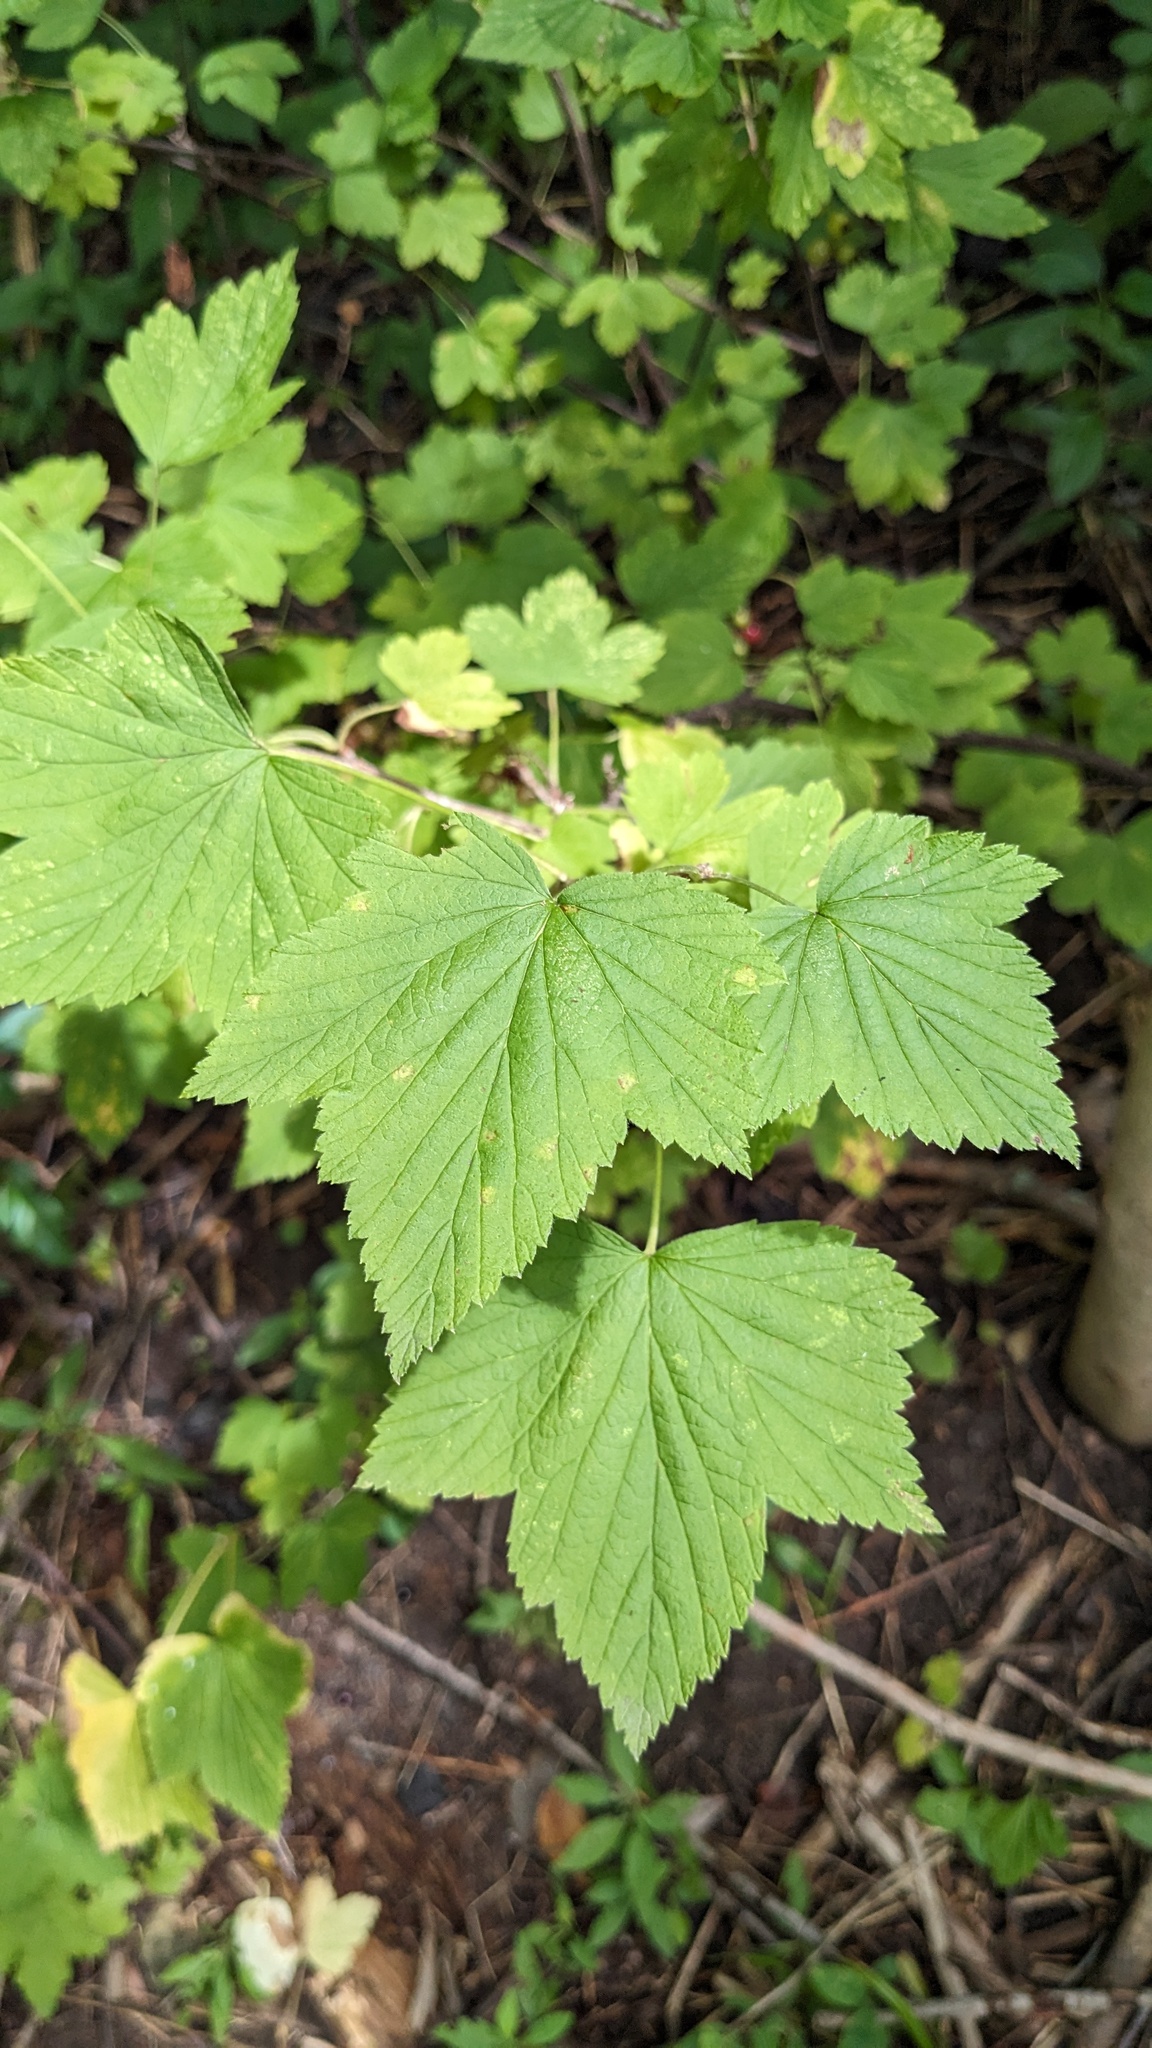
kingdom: Plantae
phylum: Tracheophyta
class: Magnoliopsida
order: Saxifragales
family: Grossulariaceae
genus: Ribes
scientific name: Ribes americanum
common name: American black currant
